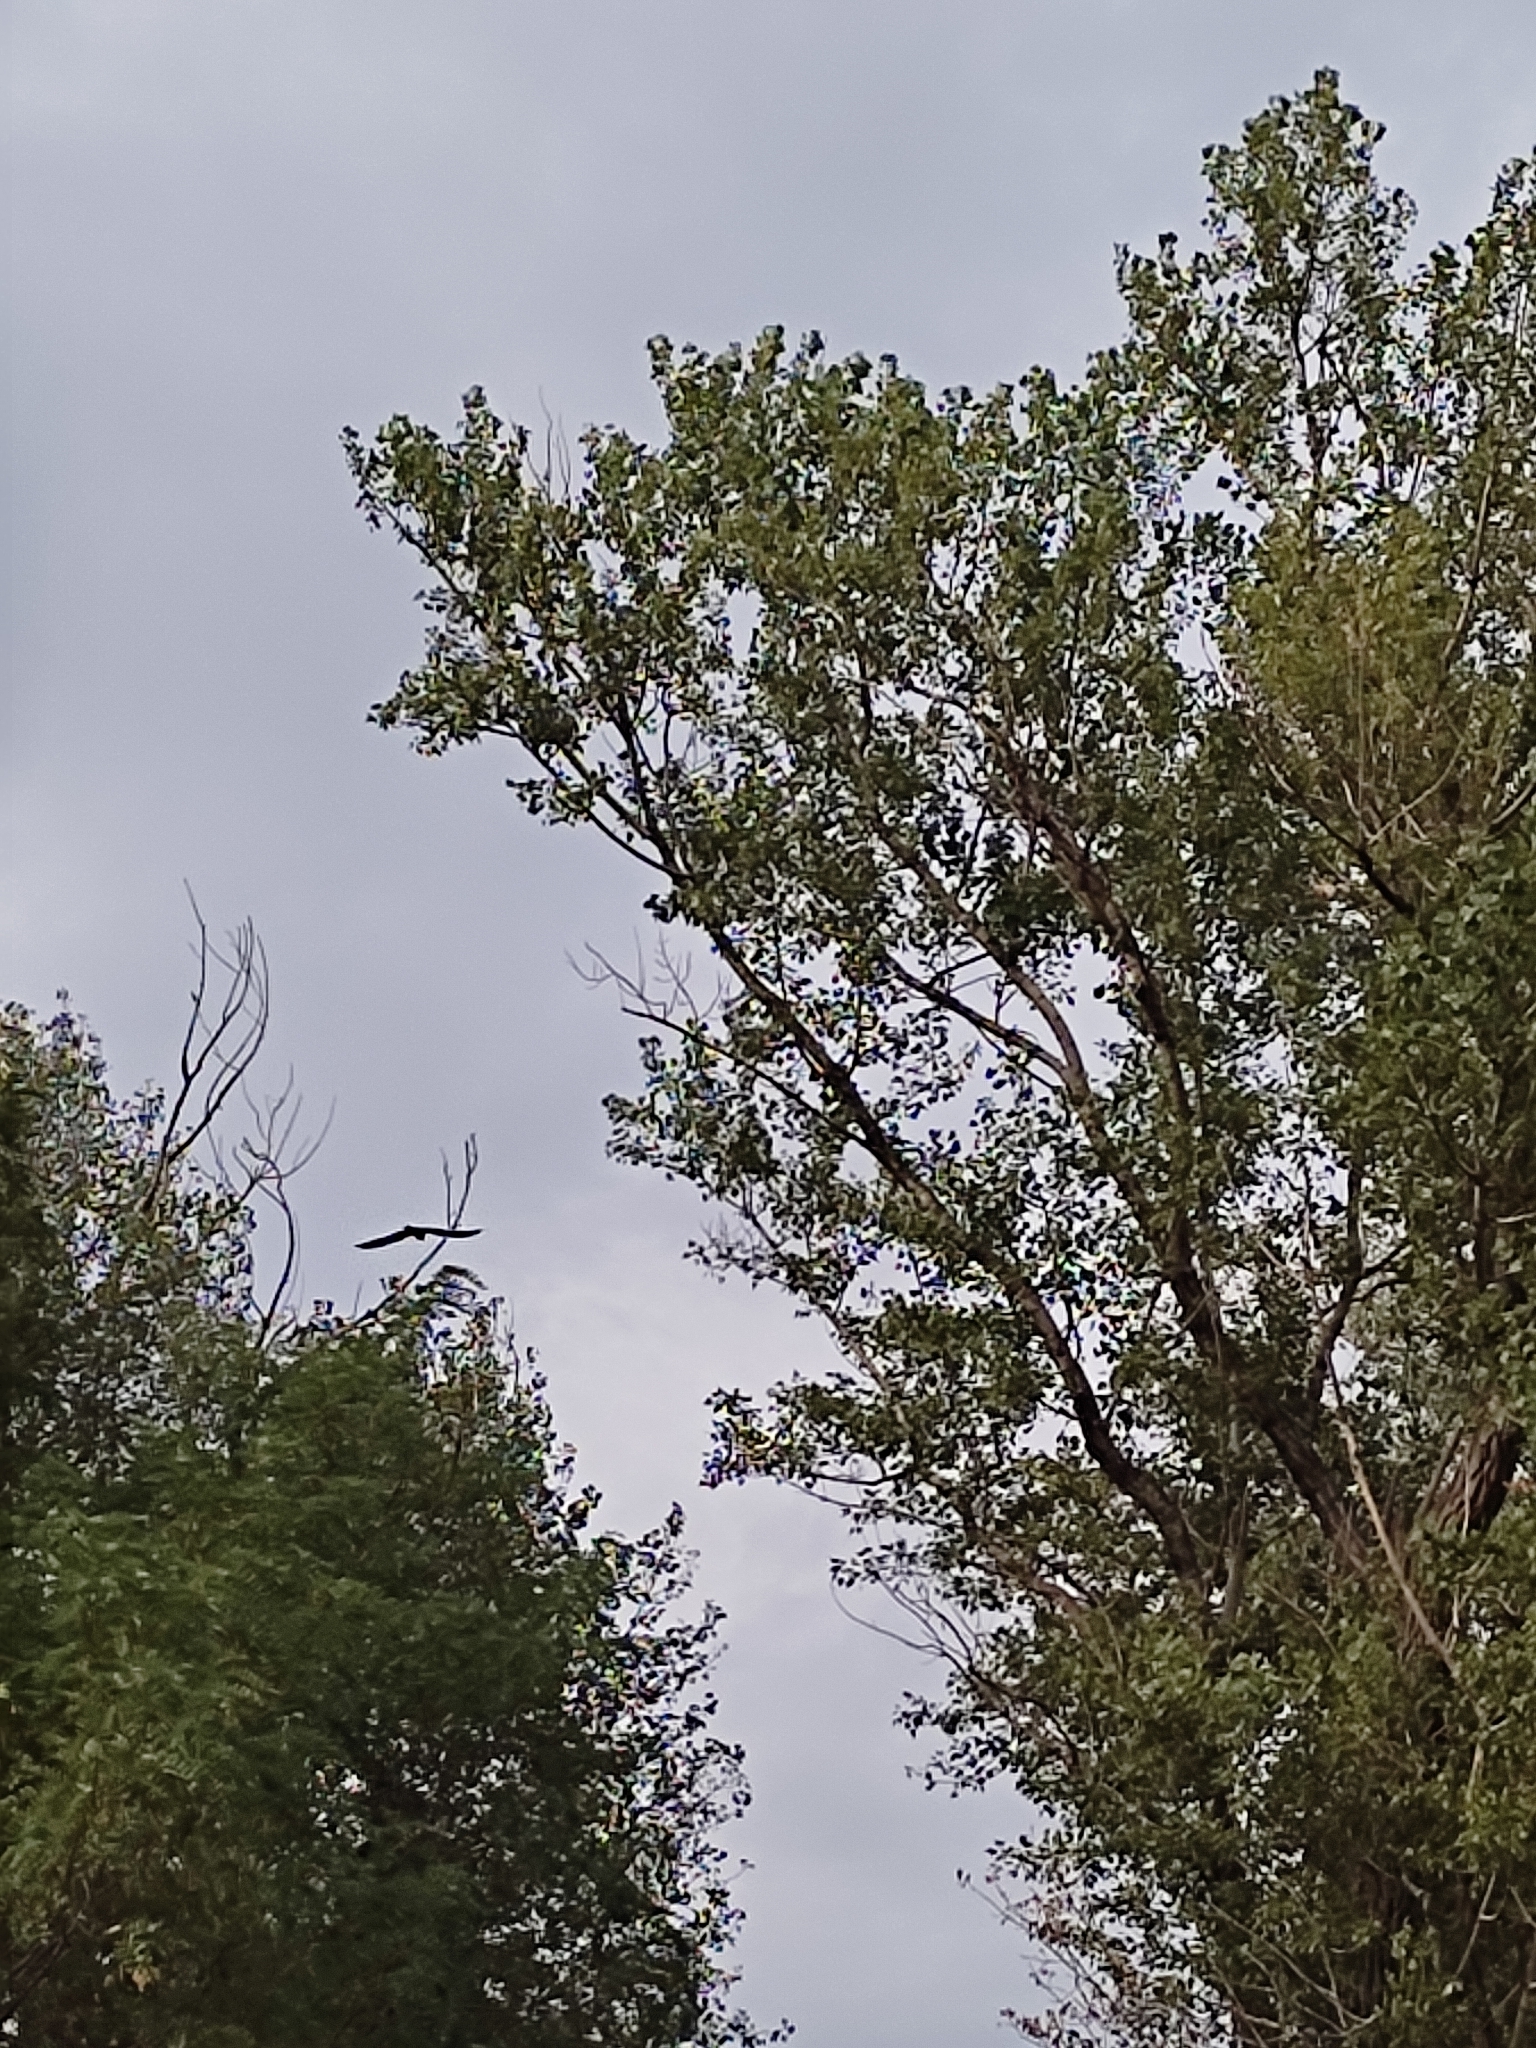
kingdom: Animalia
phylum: Chordata
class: Aves
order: Falconiformes
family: Falconidae
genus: Falco
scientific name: Falco tinnunculus
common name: Common kestrel
